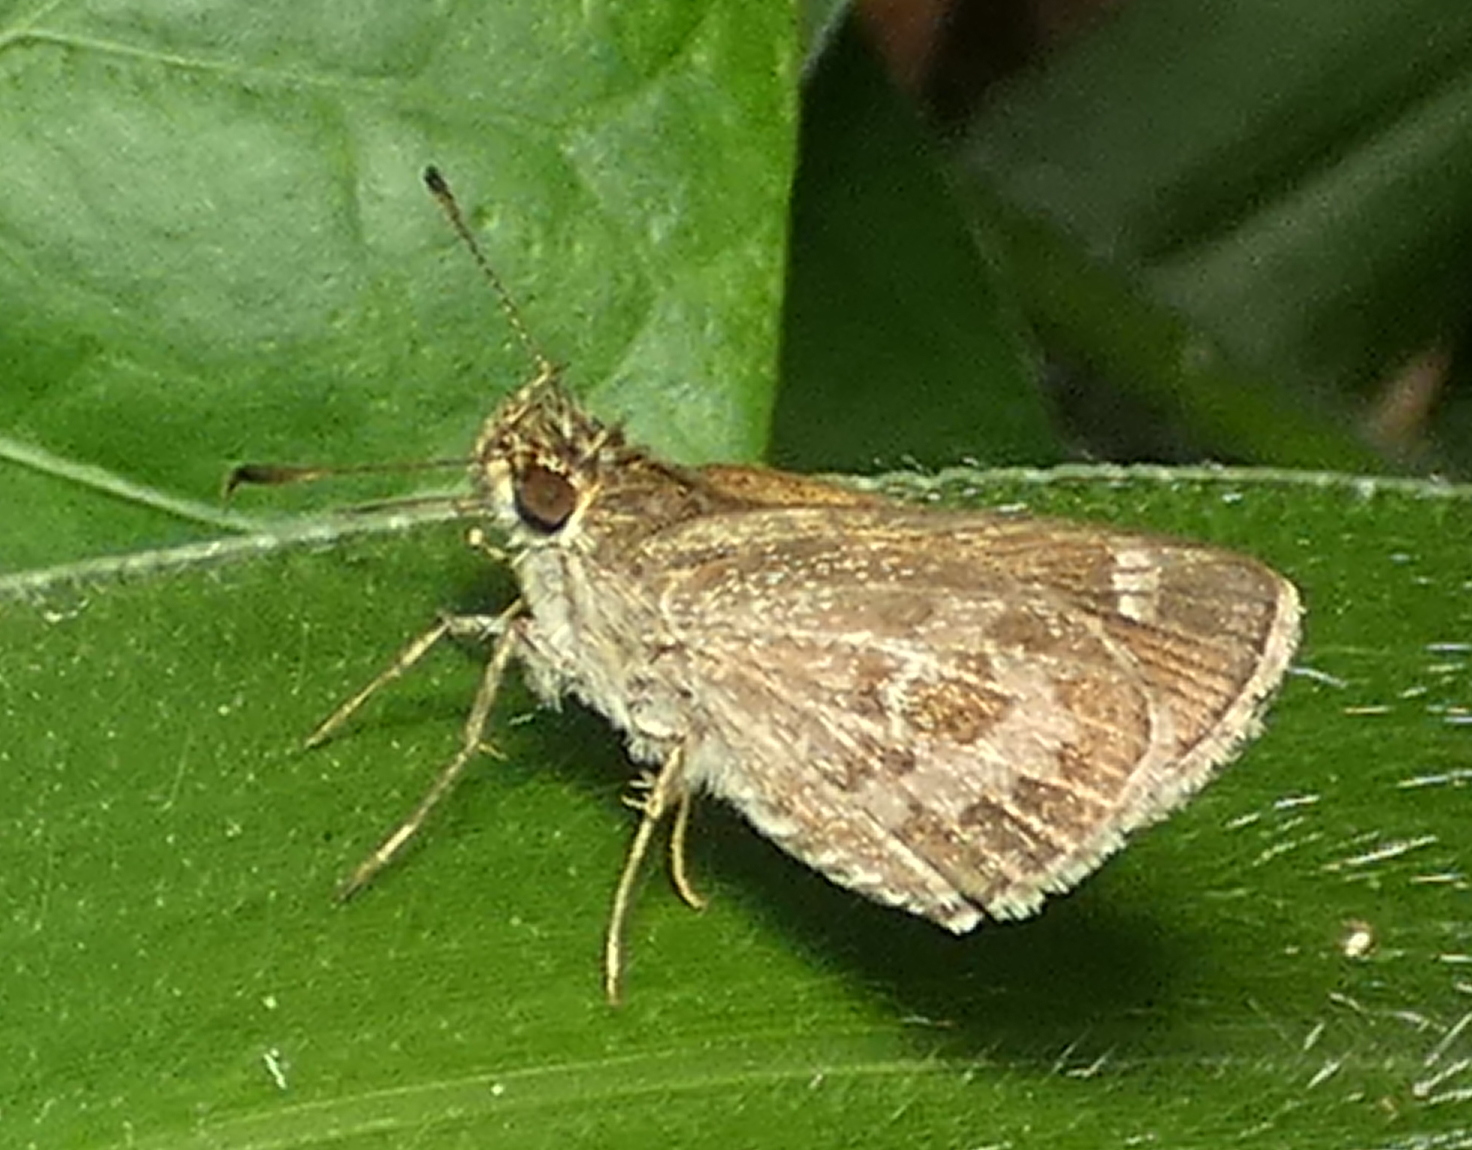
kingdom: Animalia
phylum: Arthropoda
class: Insecta
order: Lepidoptera
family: Hesperiidae
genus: Callimormus
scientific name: Callimormus corades
